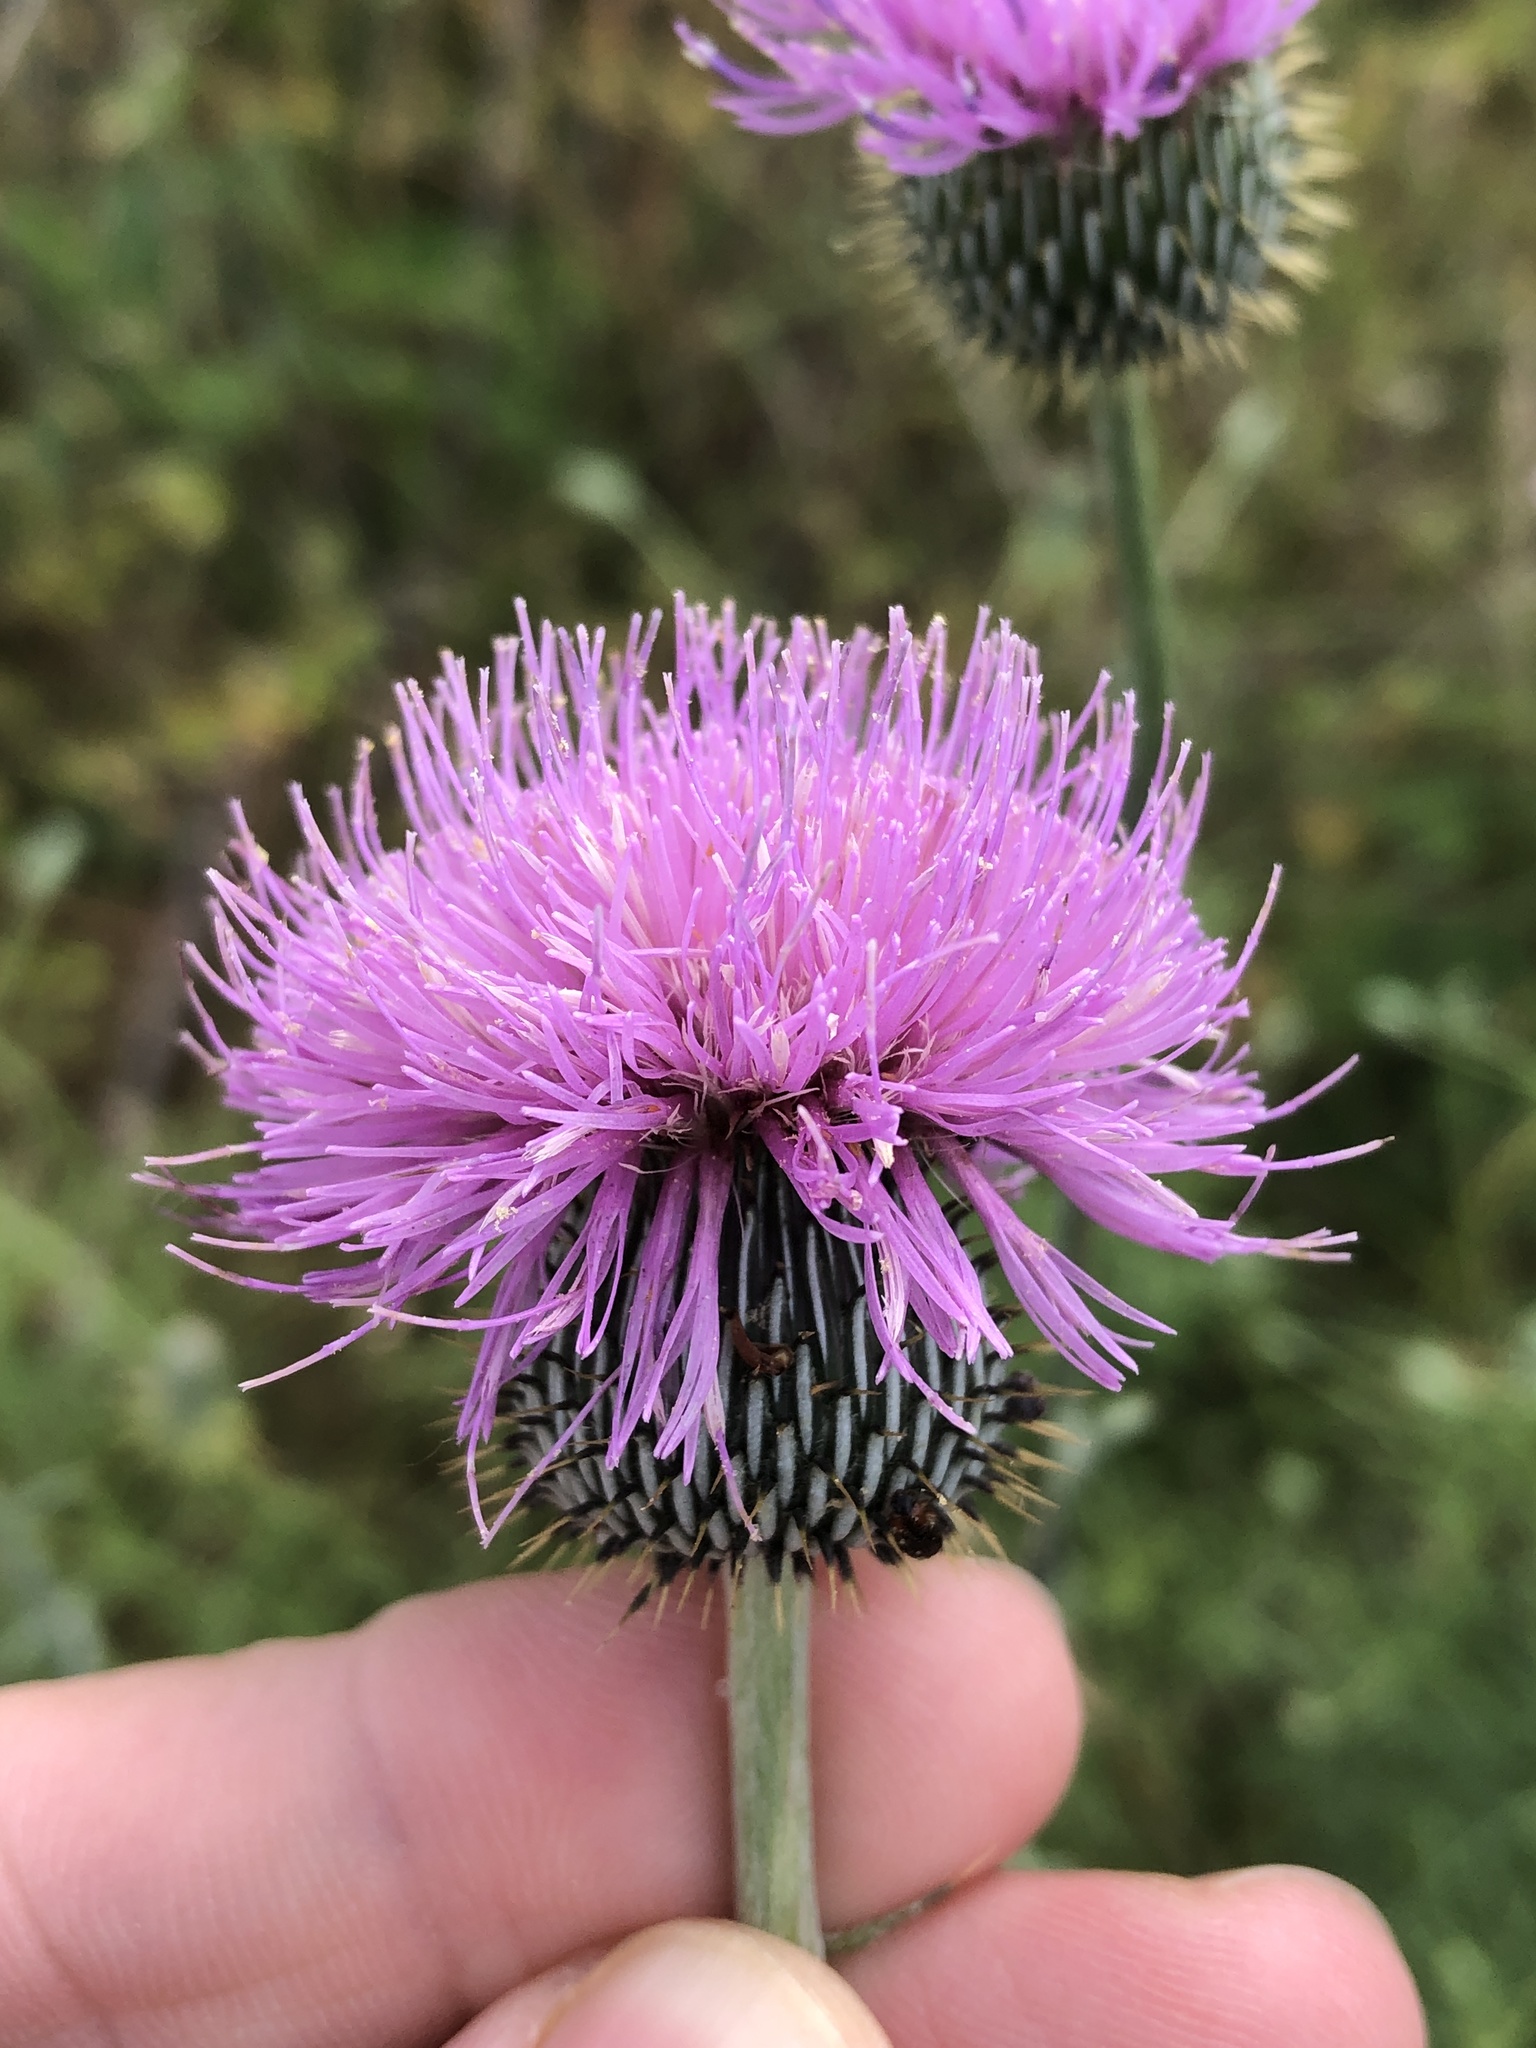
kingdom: Plantae
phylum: Tracheophyta
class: Magnoliopsida
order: Asterales
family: Asteraceae
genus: Cirsium
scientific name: Cirsium texanum
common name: Texas purple thistle
